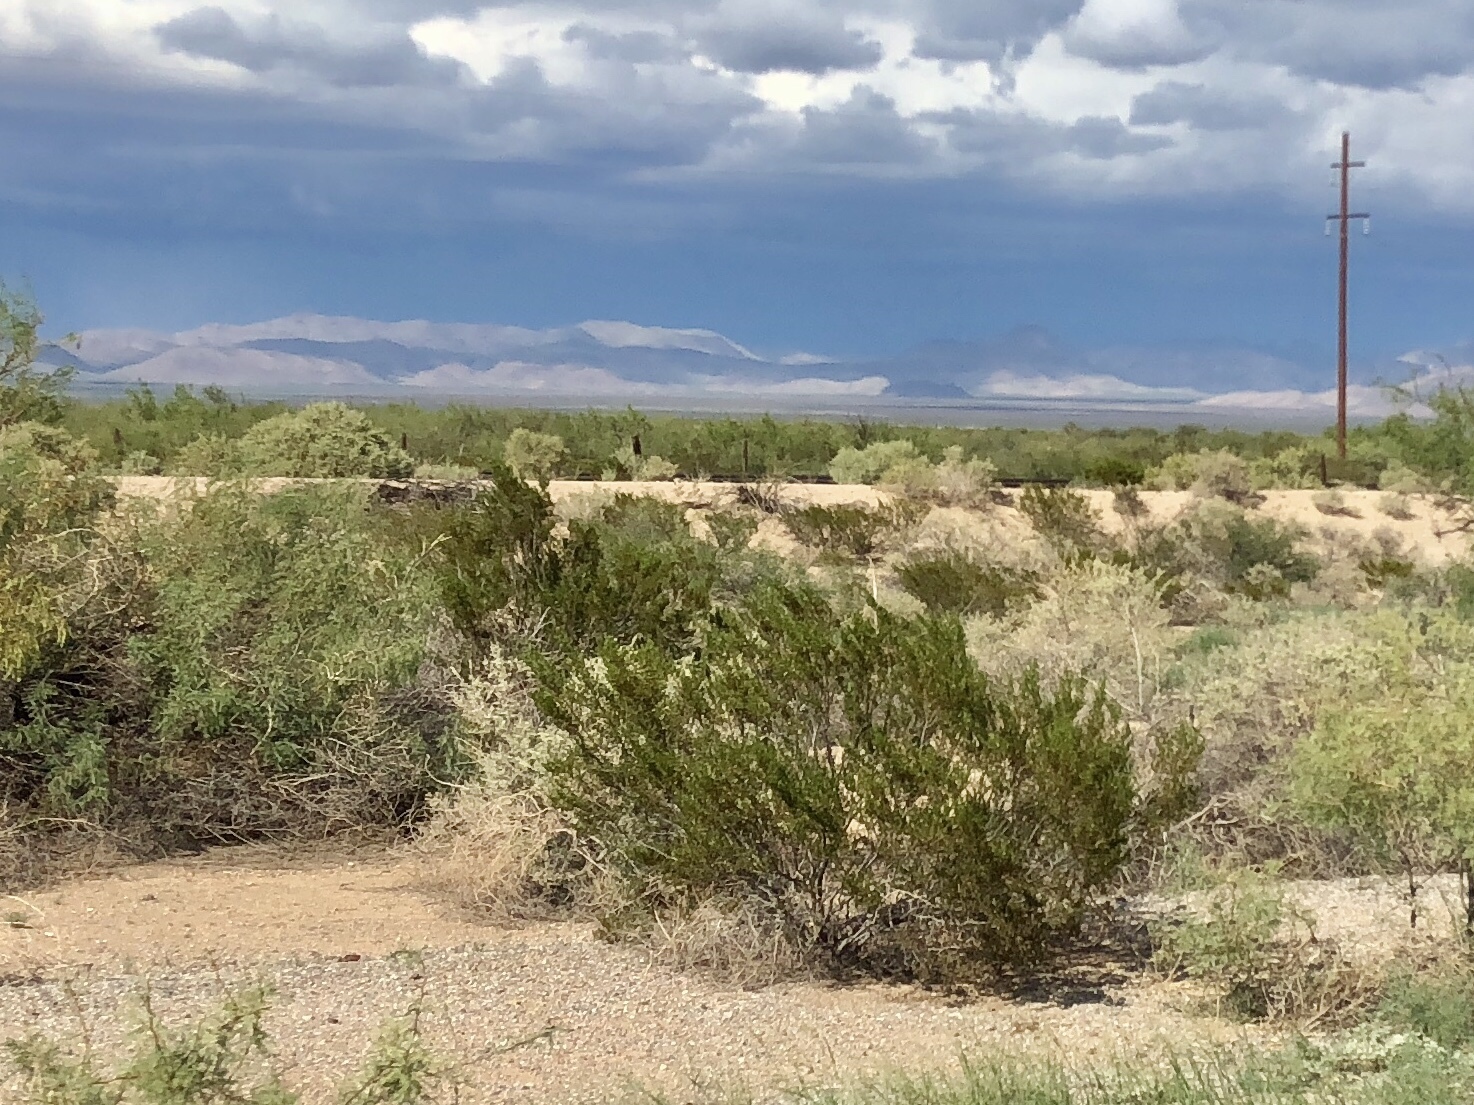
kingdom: Plantae
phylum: Tracheophyta
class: Magnoliopsida
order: Zygophyllales
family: Zygophyllaceae
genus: Larrea
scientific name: Larrea tridentata
